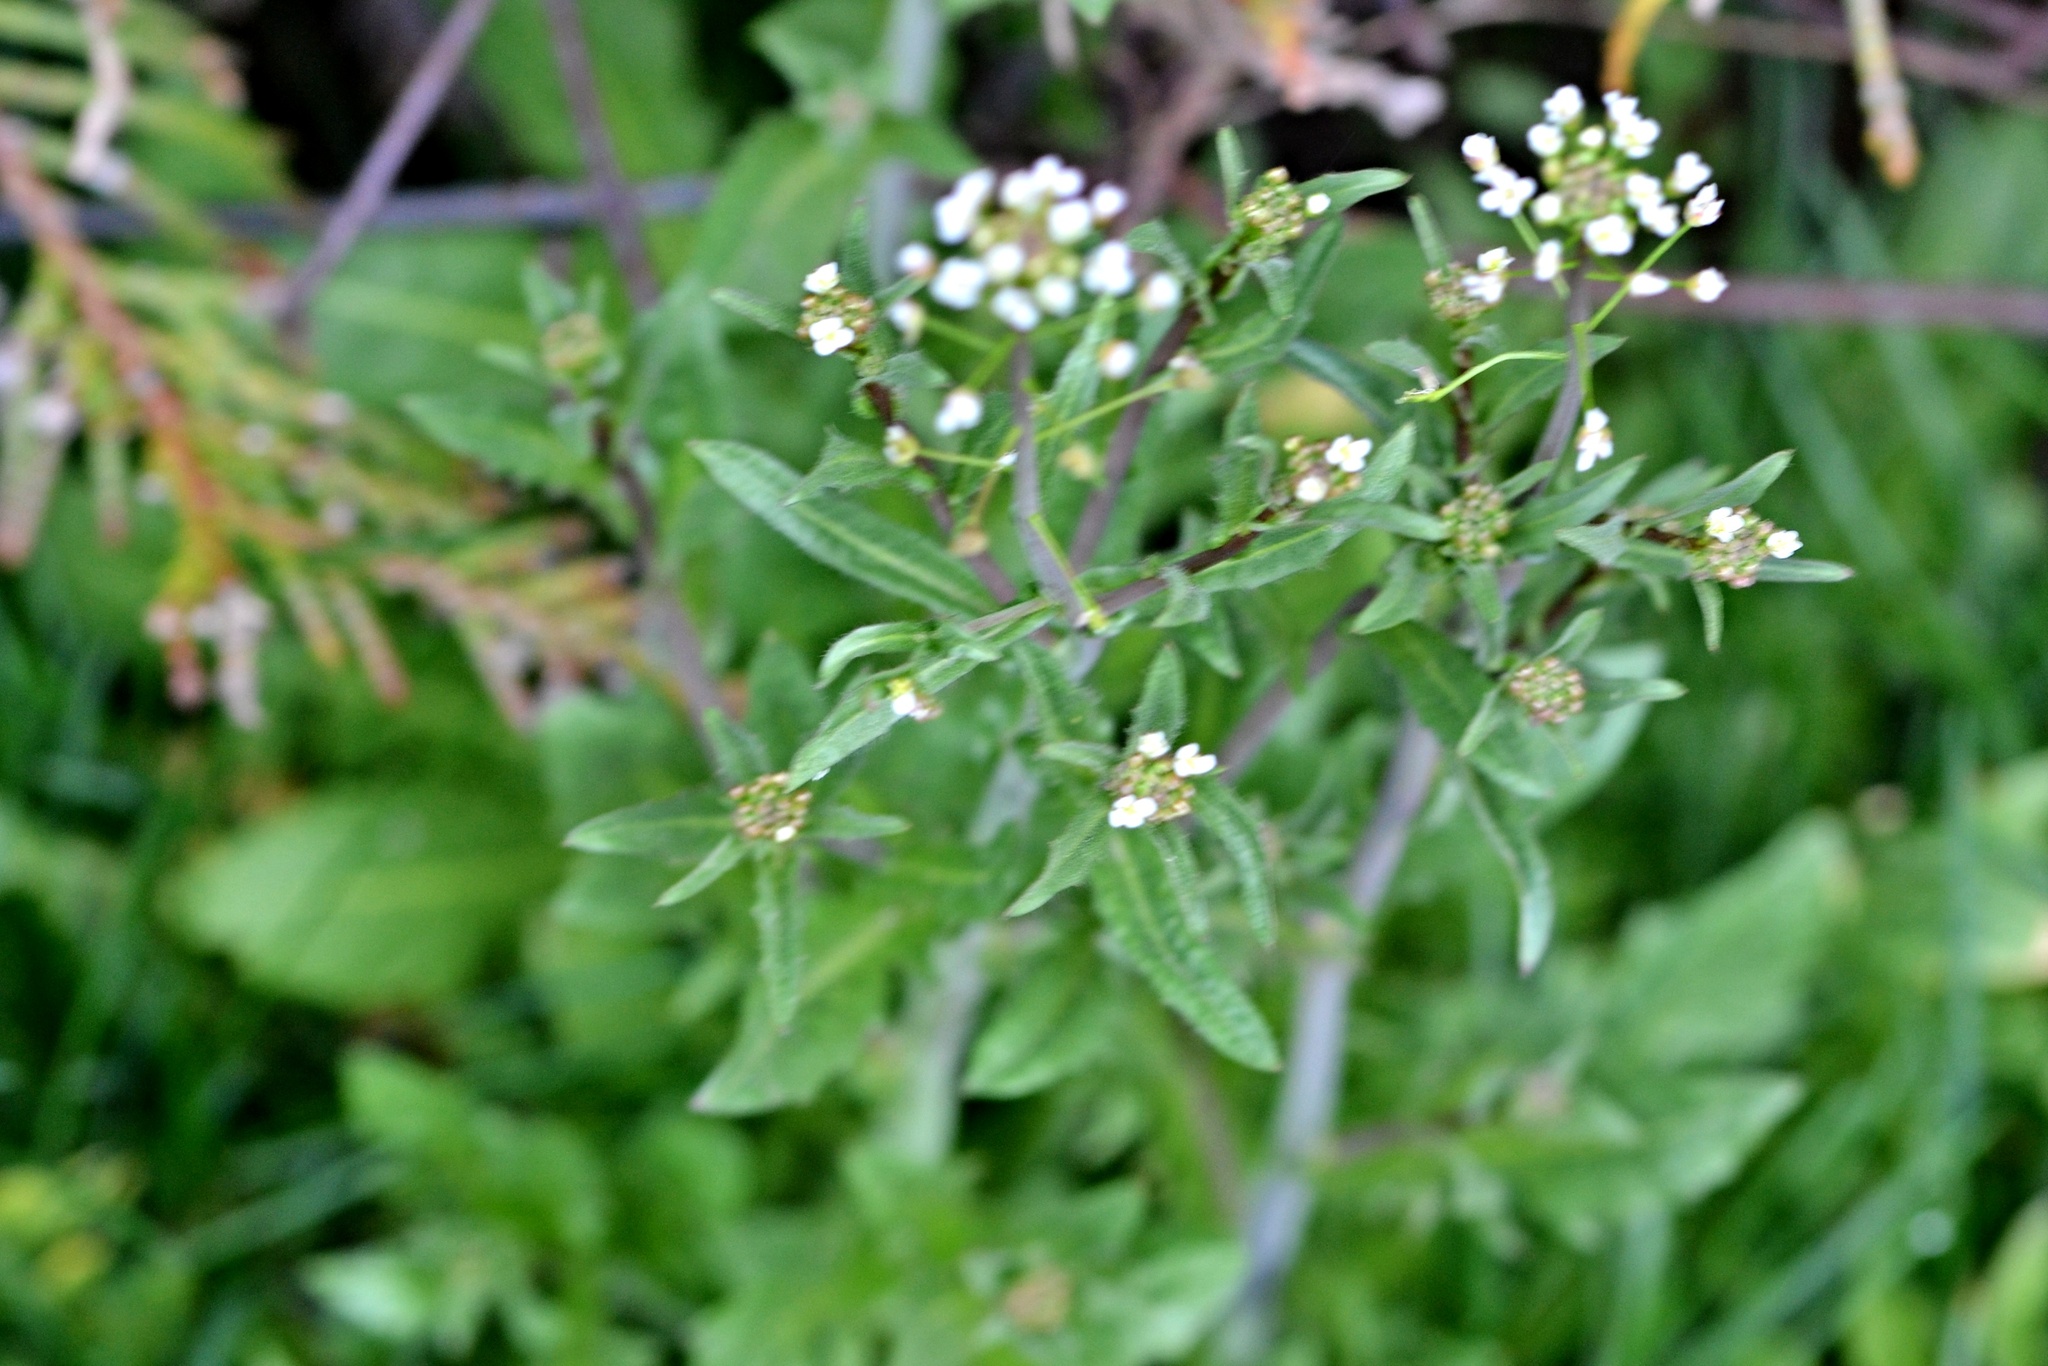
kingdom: Plantae
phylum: Tracheophyta
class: Magnoliopsida
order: Brassicales
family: Brassicaceae
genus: Capsella
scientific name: Capsella bursa-pastoris
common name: Shepherd's purse
